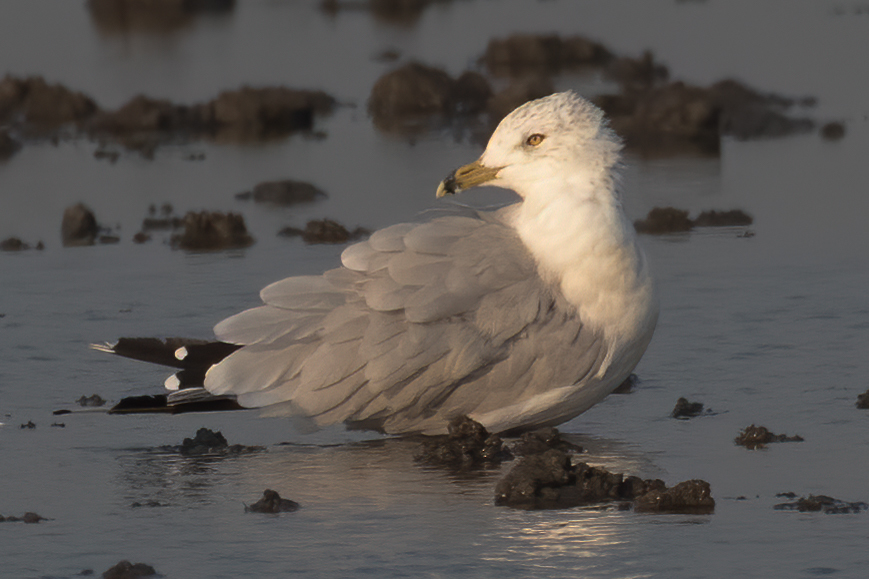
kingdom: Animalia
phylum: Chordata
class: Aves
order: Charadriiformes
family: Laridae
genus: Larus
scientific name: Larus delawarensis
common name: Ring-billed gull
